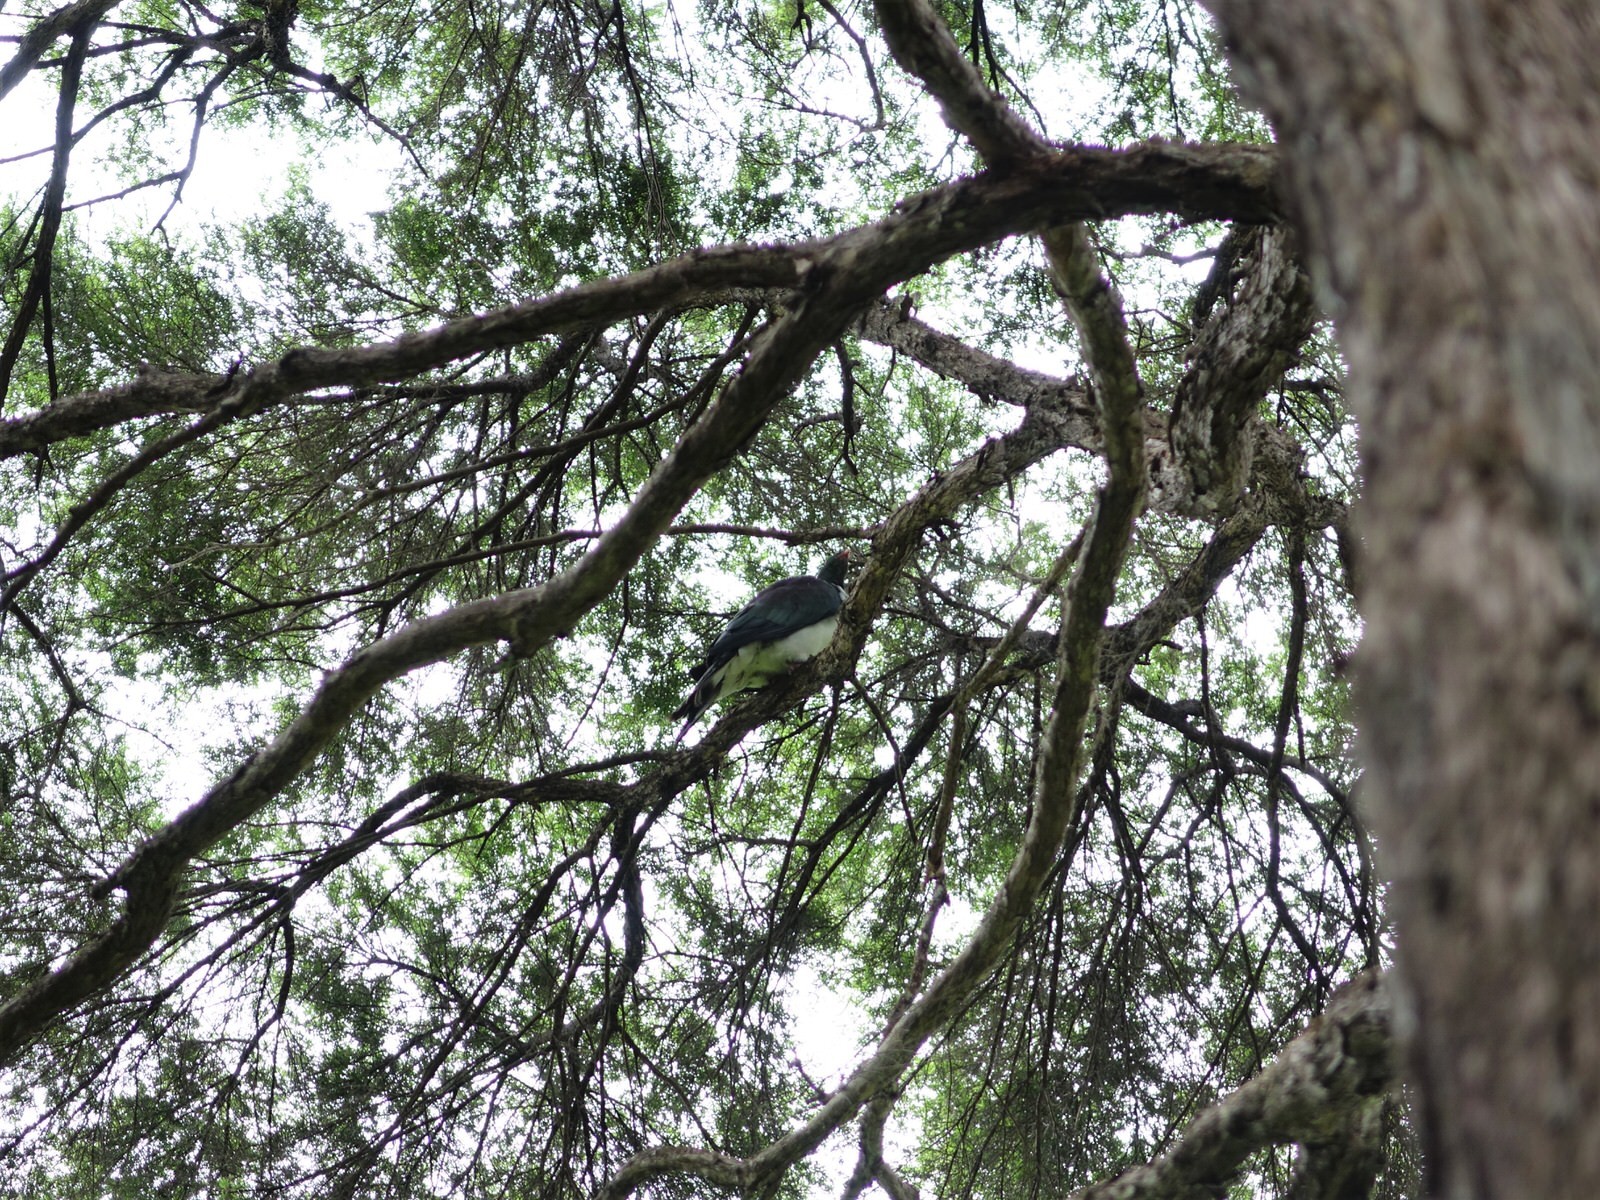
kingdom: Animalia
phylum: Chordata
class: Aves
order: Columbiformes
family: Columbidae
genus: Hemiphaga
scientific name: Hemiphaga novaeseelandiae
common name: New zealand pigeon
